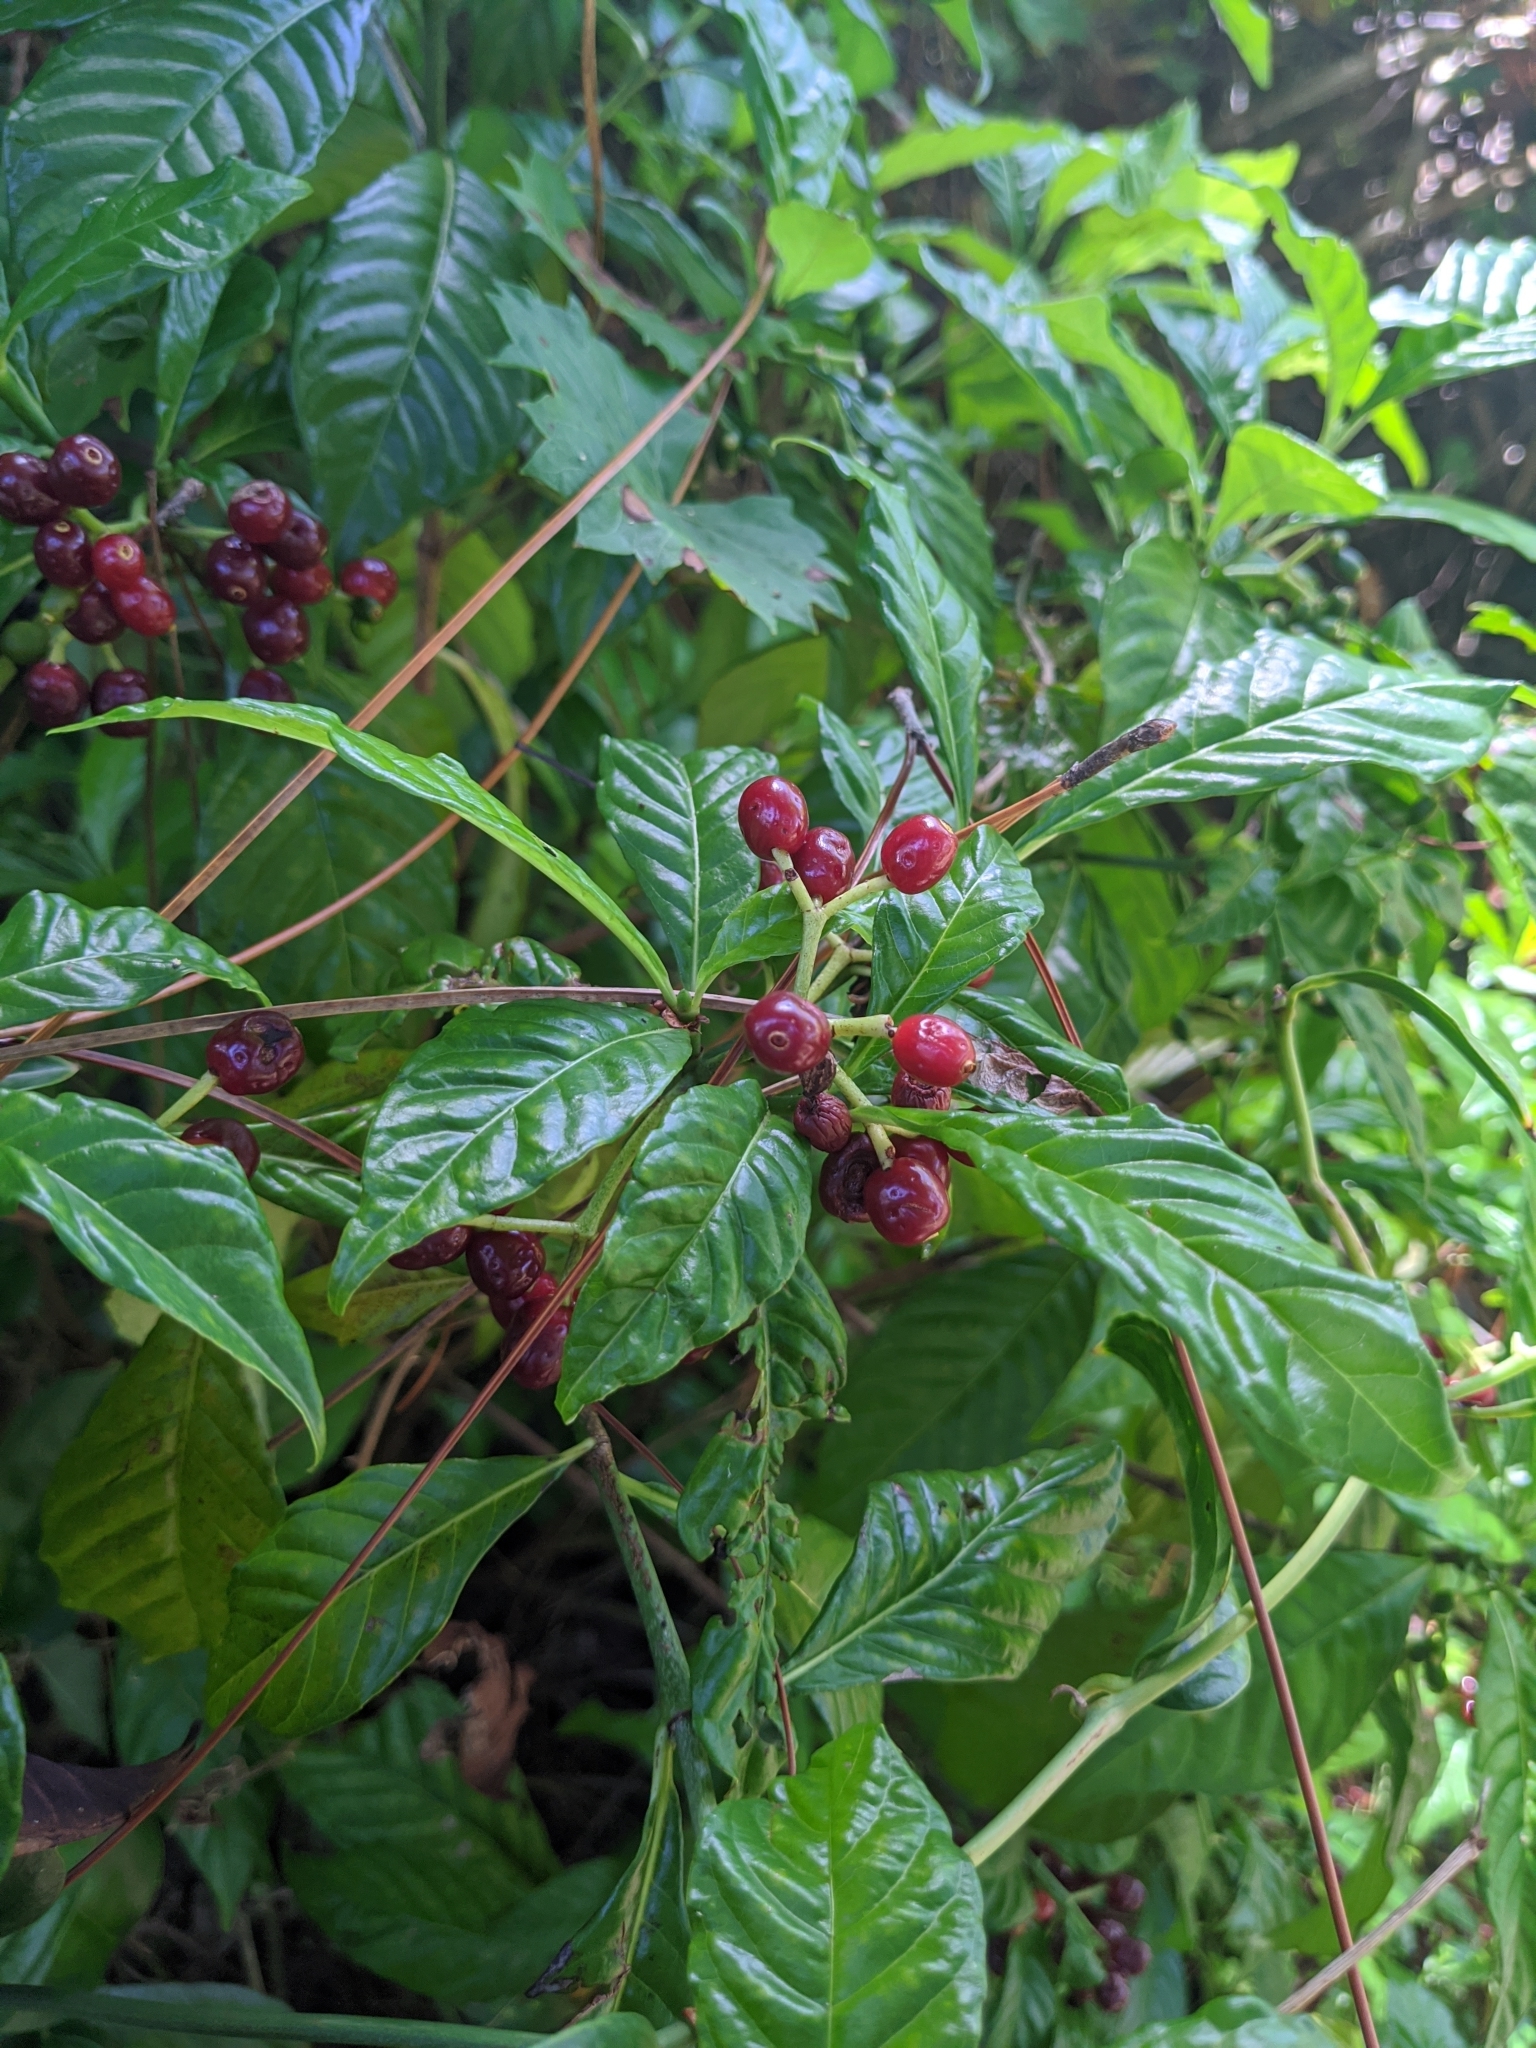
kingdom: Plantae
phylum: Tracheophyta
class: Magnoliopsida
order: Gentianales
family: Rubiaceae
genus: Psychotria
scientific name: Psychotria nervosa
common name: Bastard cankerberry
